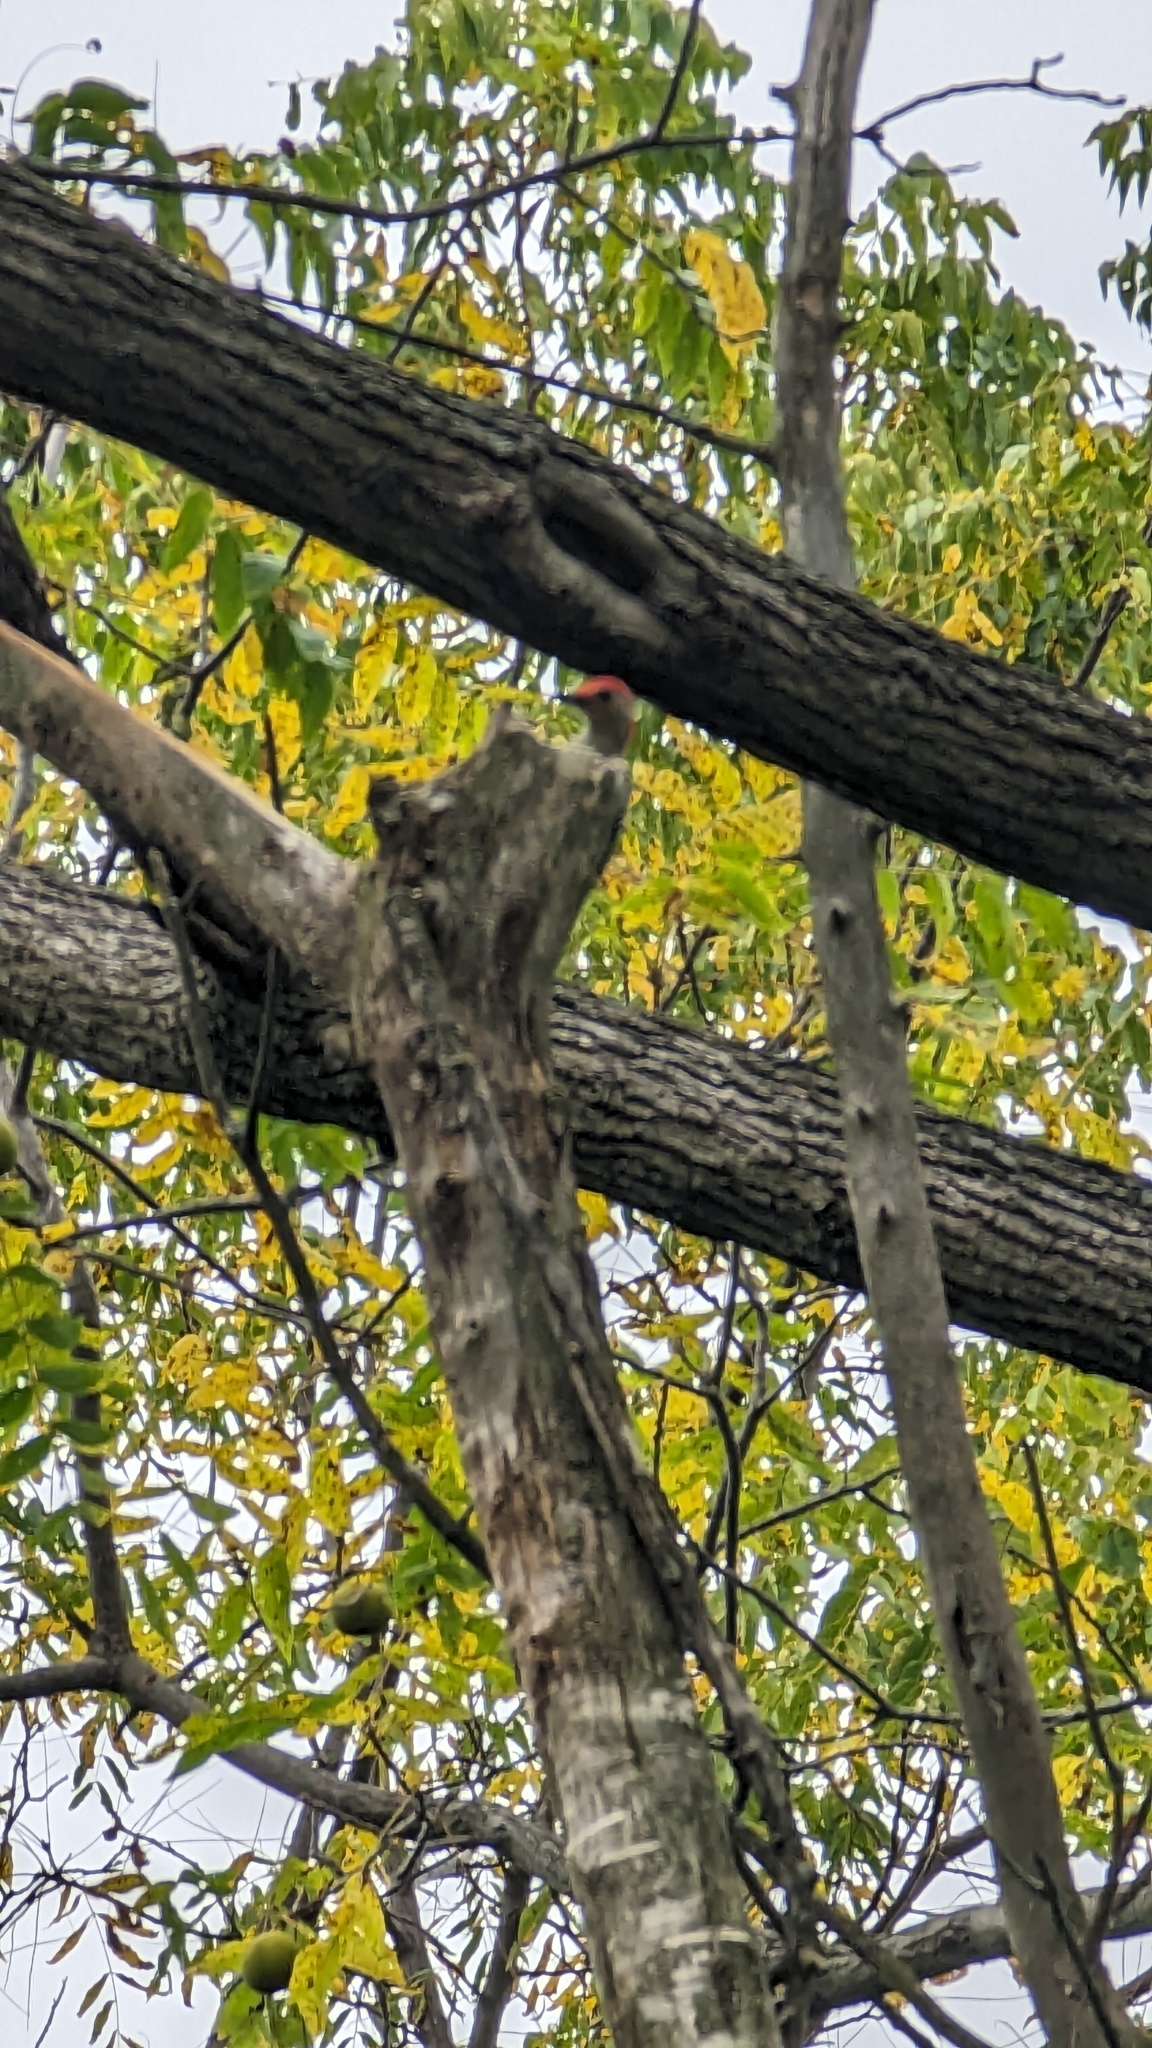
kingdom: Animalia
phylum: Chordata
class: Aves
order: Piciformes
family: Picidae
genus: Melanerpes
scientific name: Melanerpes carolinus
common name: Red-bellied woodpecker
